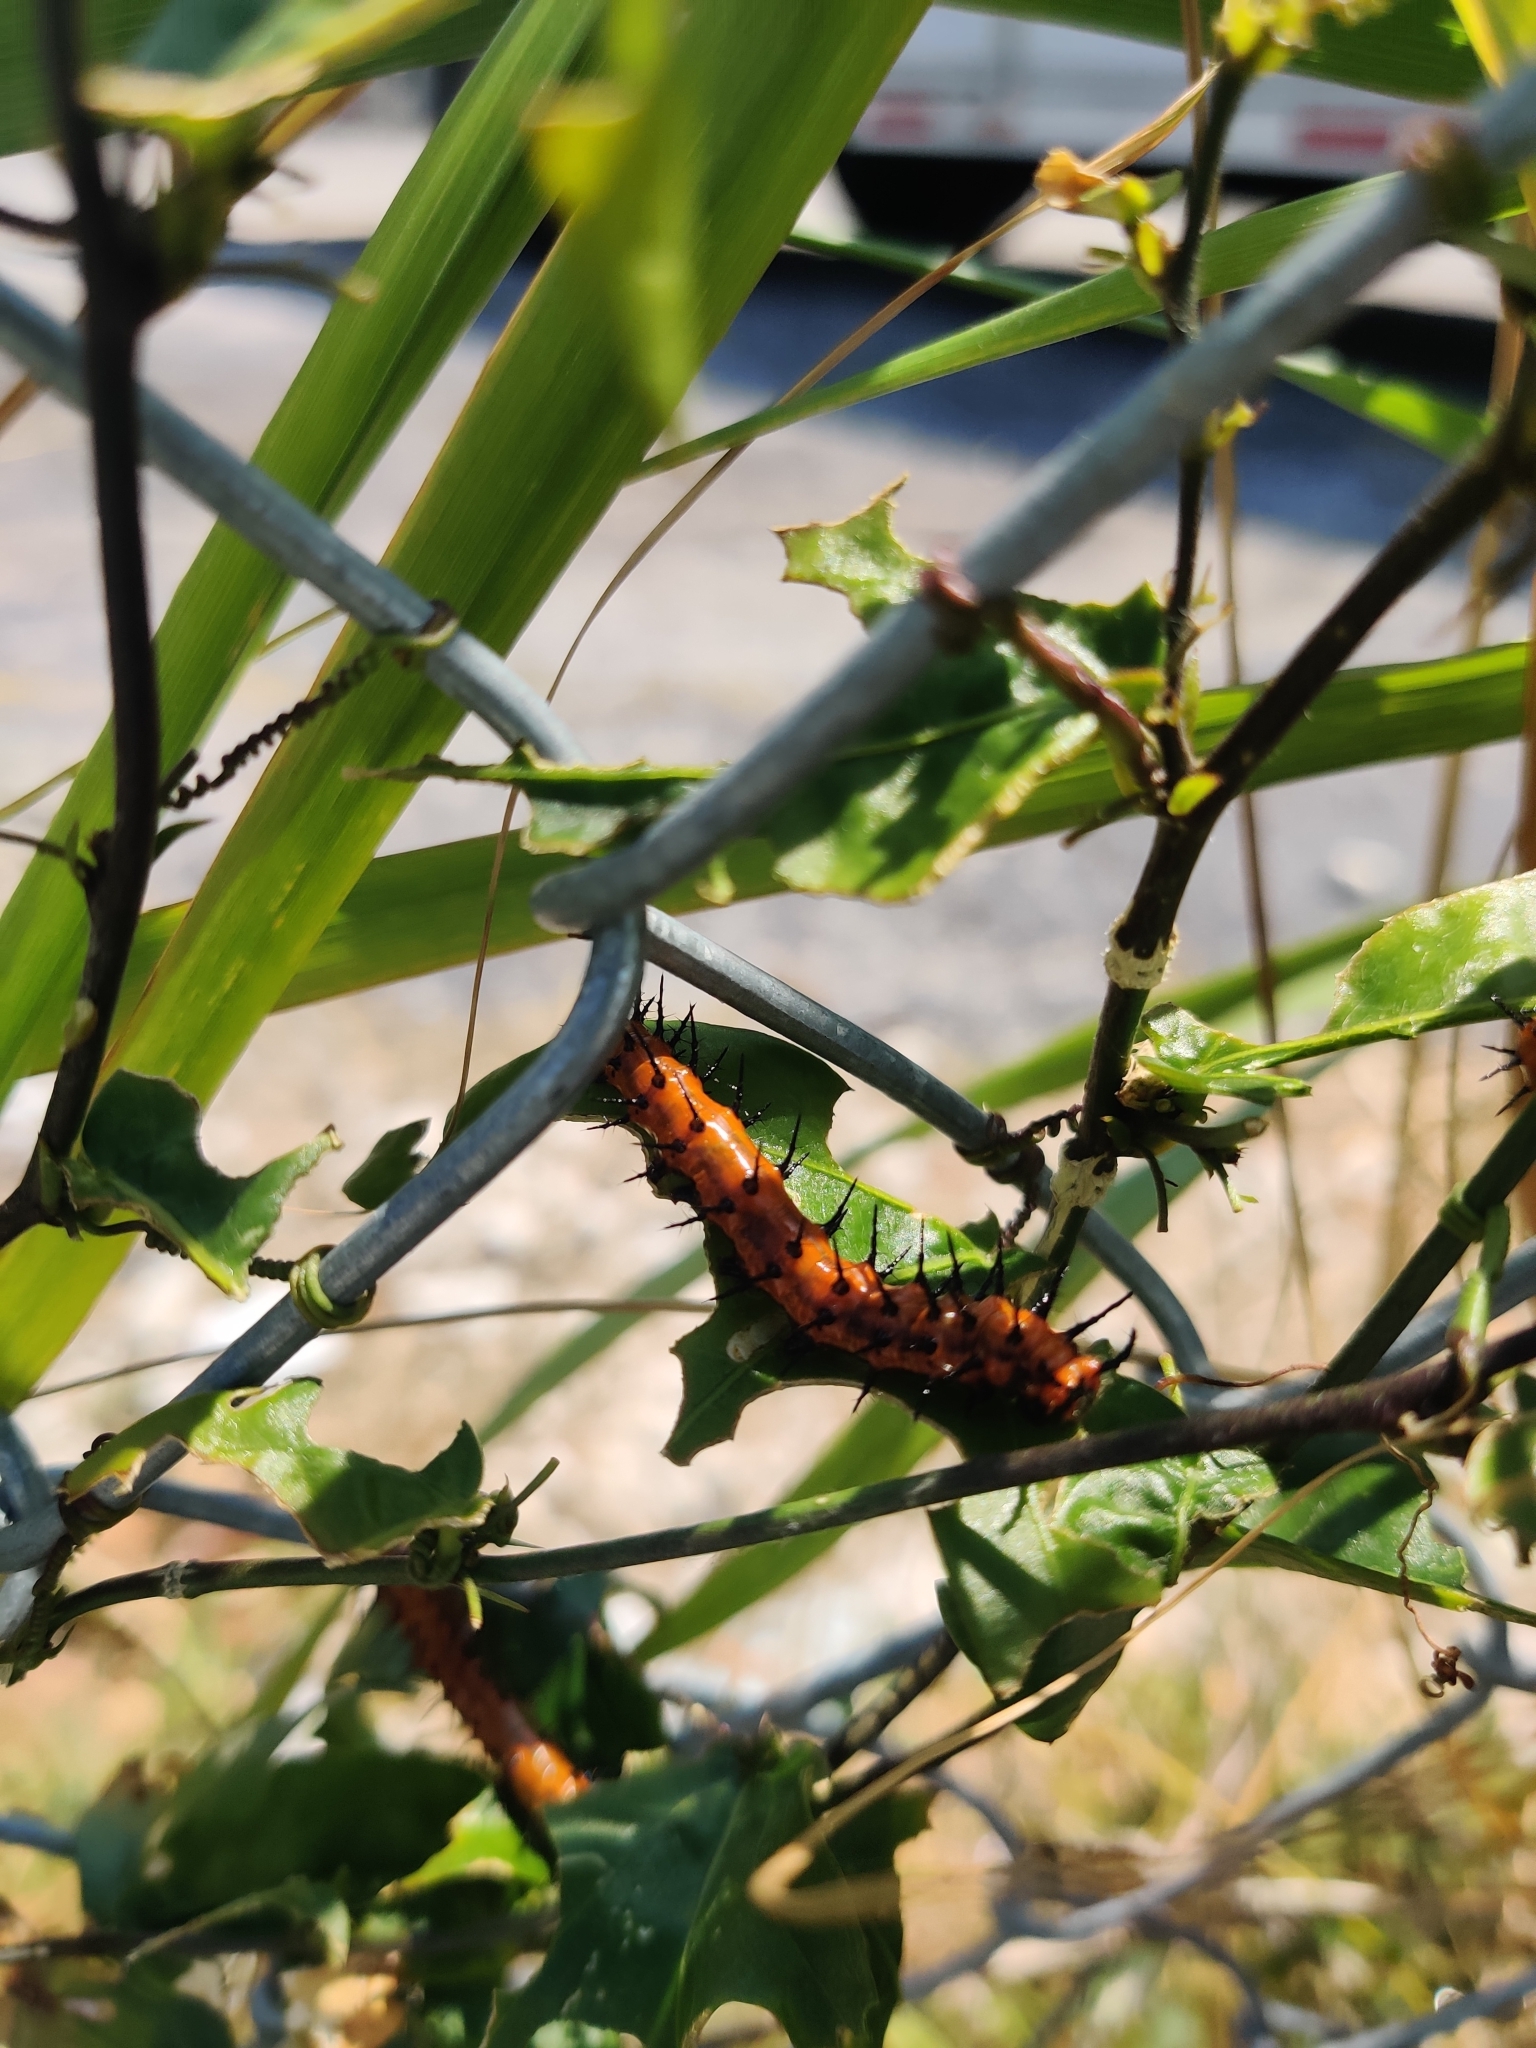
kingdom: Animalia
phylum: Arthropoda
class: Insecta
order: Lepidoptera
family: Nymphalidae
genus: Dione
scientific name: Dione vanillae
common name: Gulf fritillary
